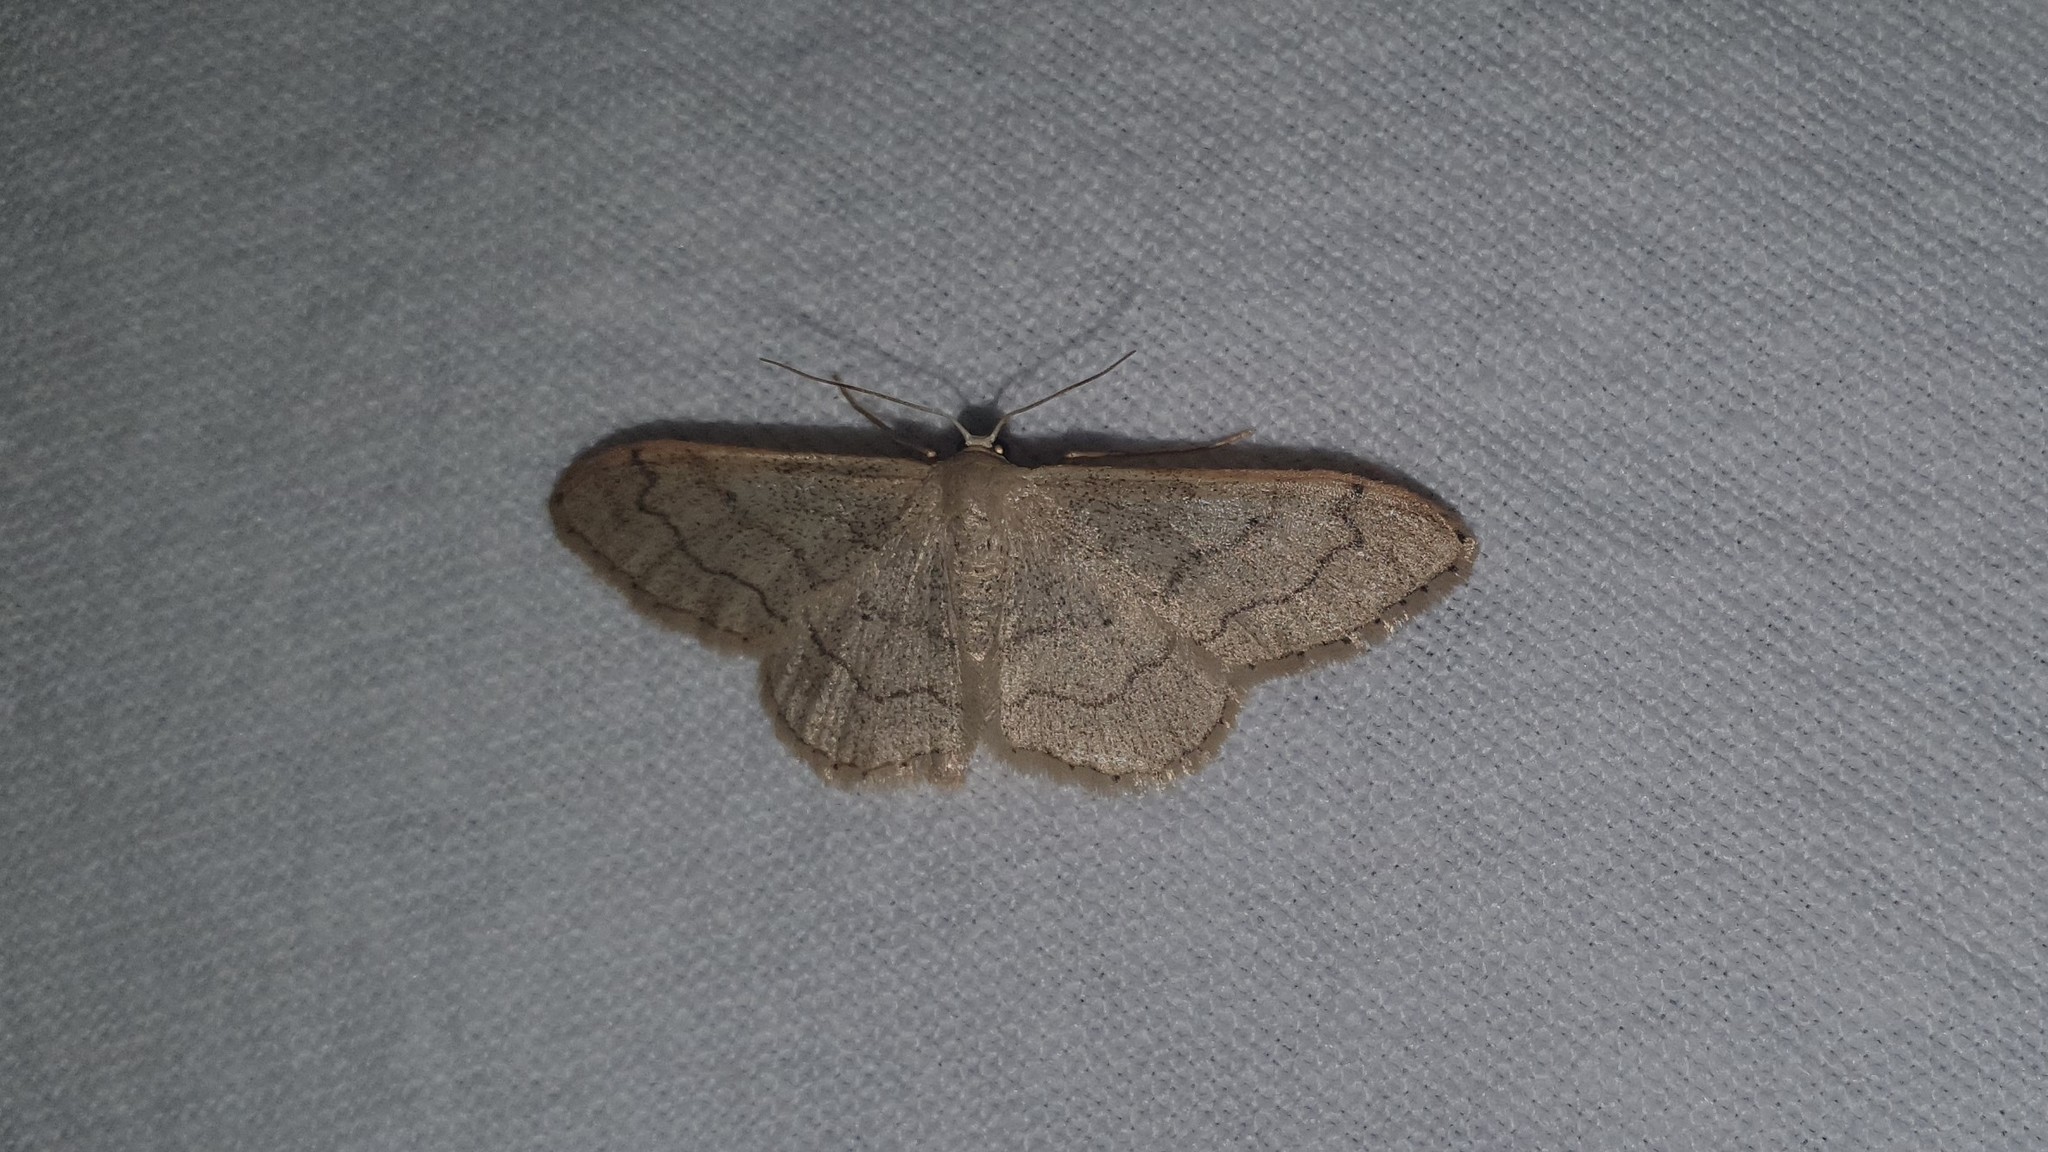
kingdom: Animalia
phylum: Arthropoda
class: Insecta
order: Lepidoptera
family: Geometridae
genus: Idaea
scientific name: Idaea aversata
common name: Riband wave
